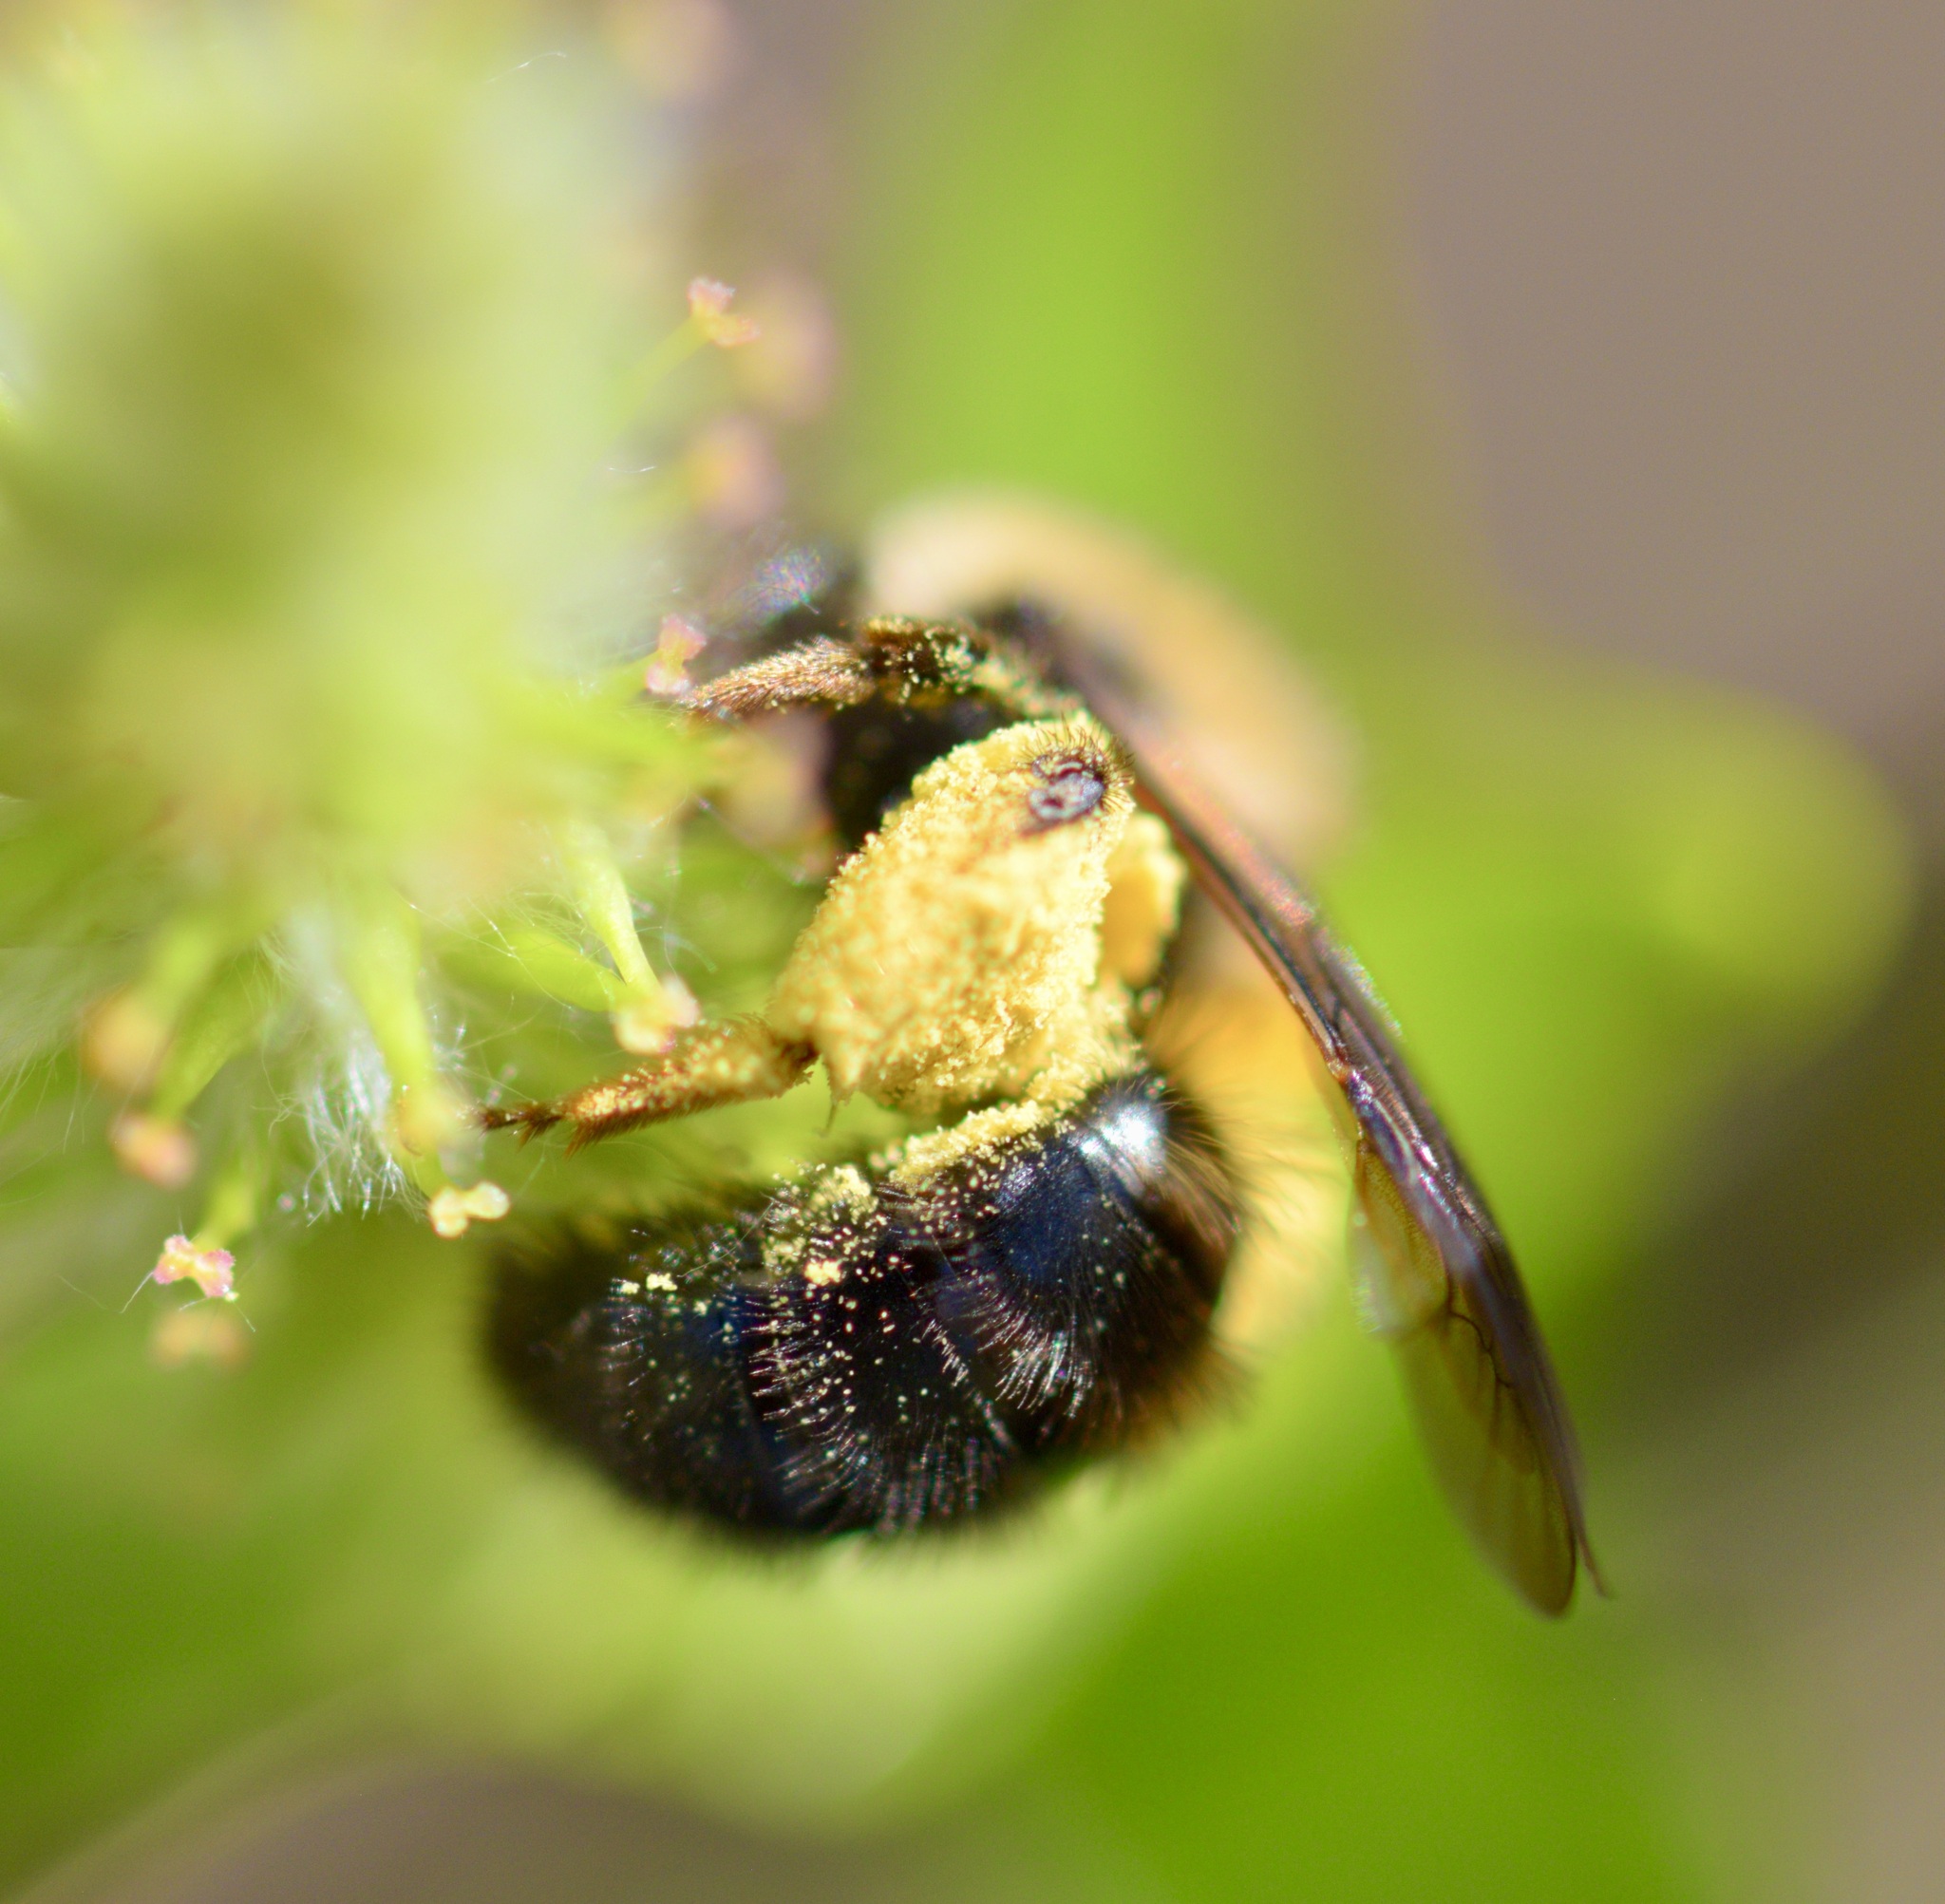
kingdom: Animalia
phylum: Arthropoda
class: Insecta
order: Hymenoptera
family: Andrenidae
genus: Andrena
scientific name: Andrena clarkella
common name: Clarke's mining bee
